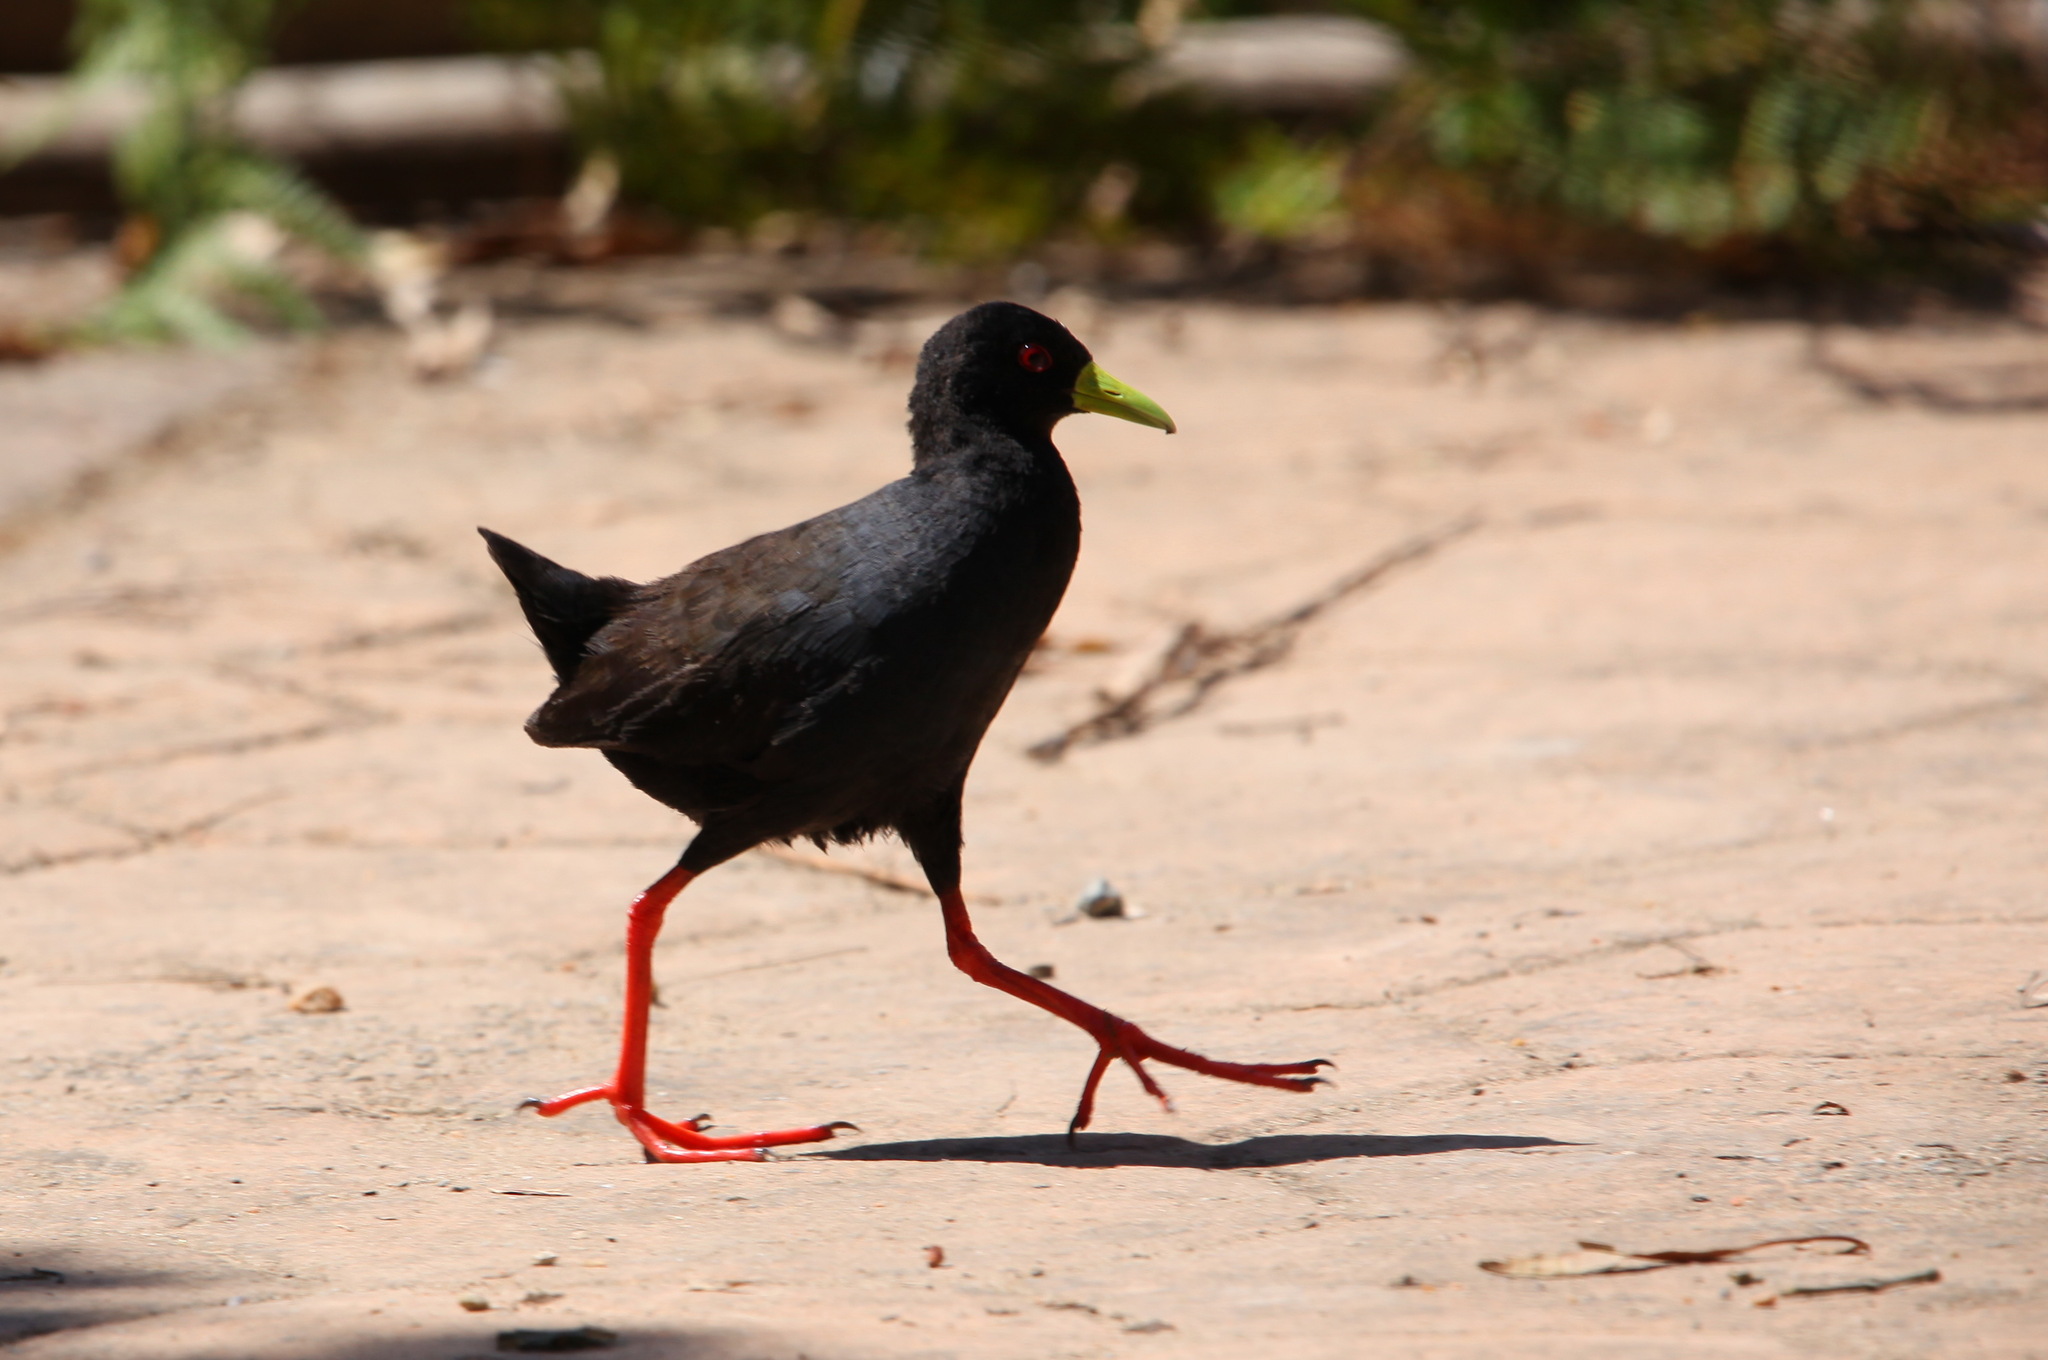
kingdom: Animalia
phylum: Chordata
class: Aves
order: Gruiformes
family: Rallidae
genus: Amaurornis
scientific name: Amaurornis flavirostra
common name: Black crake
